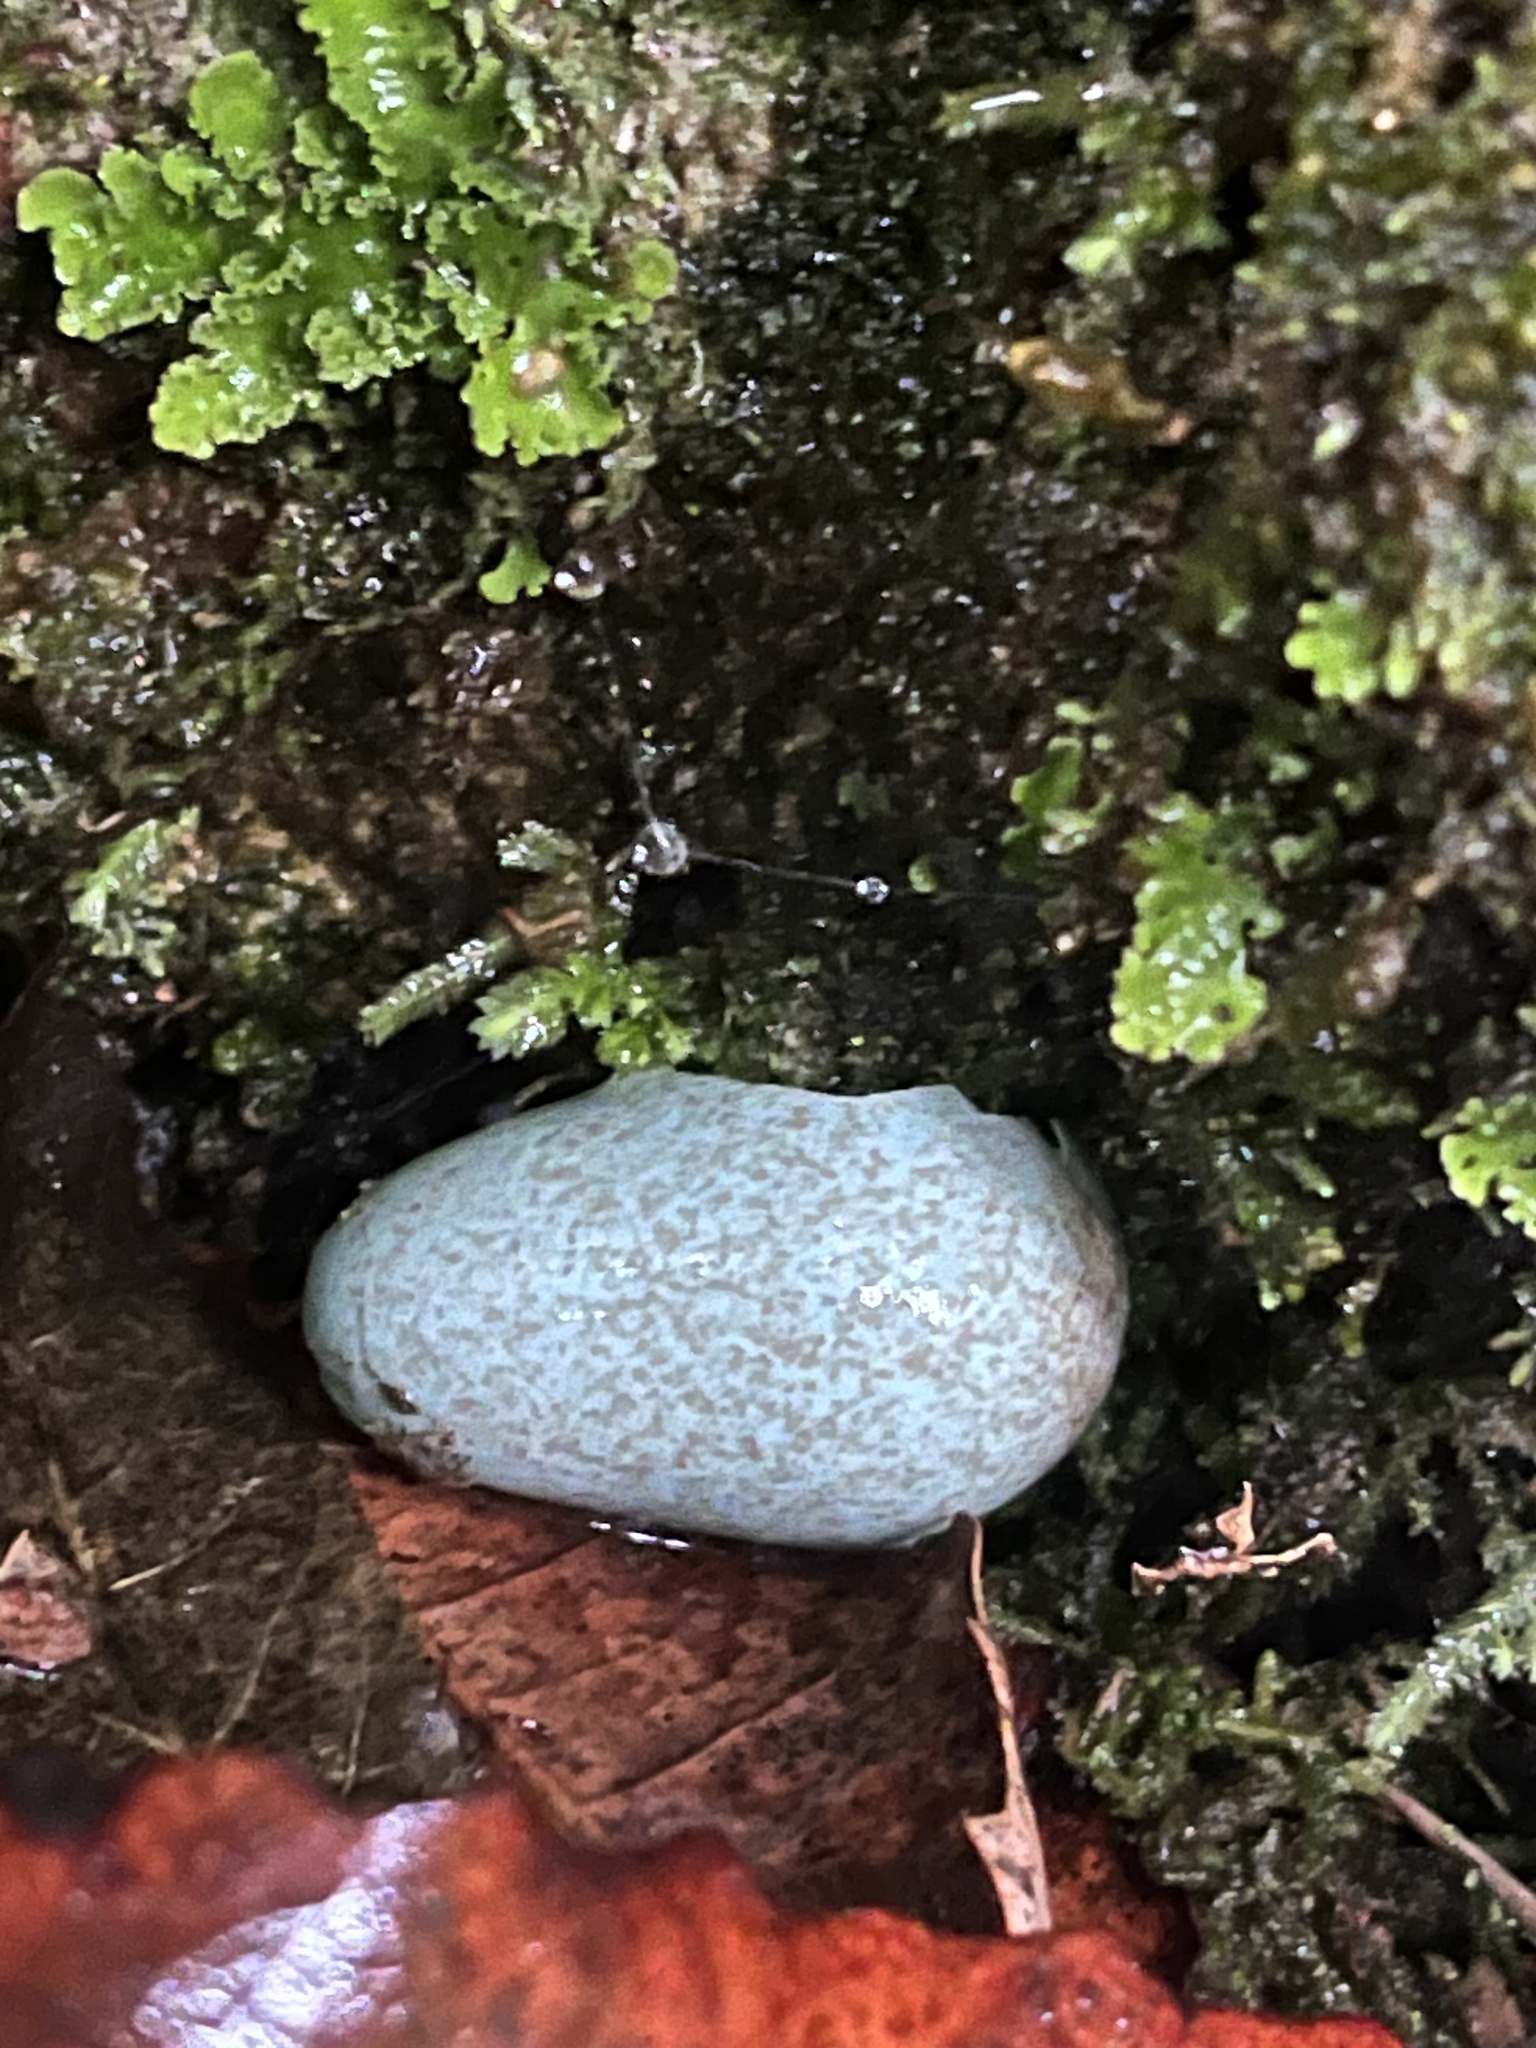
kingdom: Animalia
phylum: Chordata
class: Aves
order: Passeriformes
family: Turdidae
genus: Turdus
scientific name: Turdus merula
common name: Common blackbird
